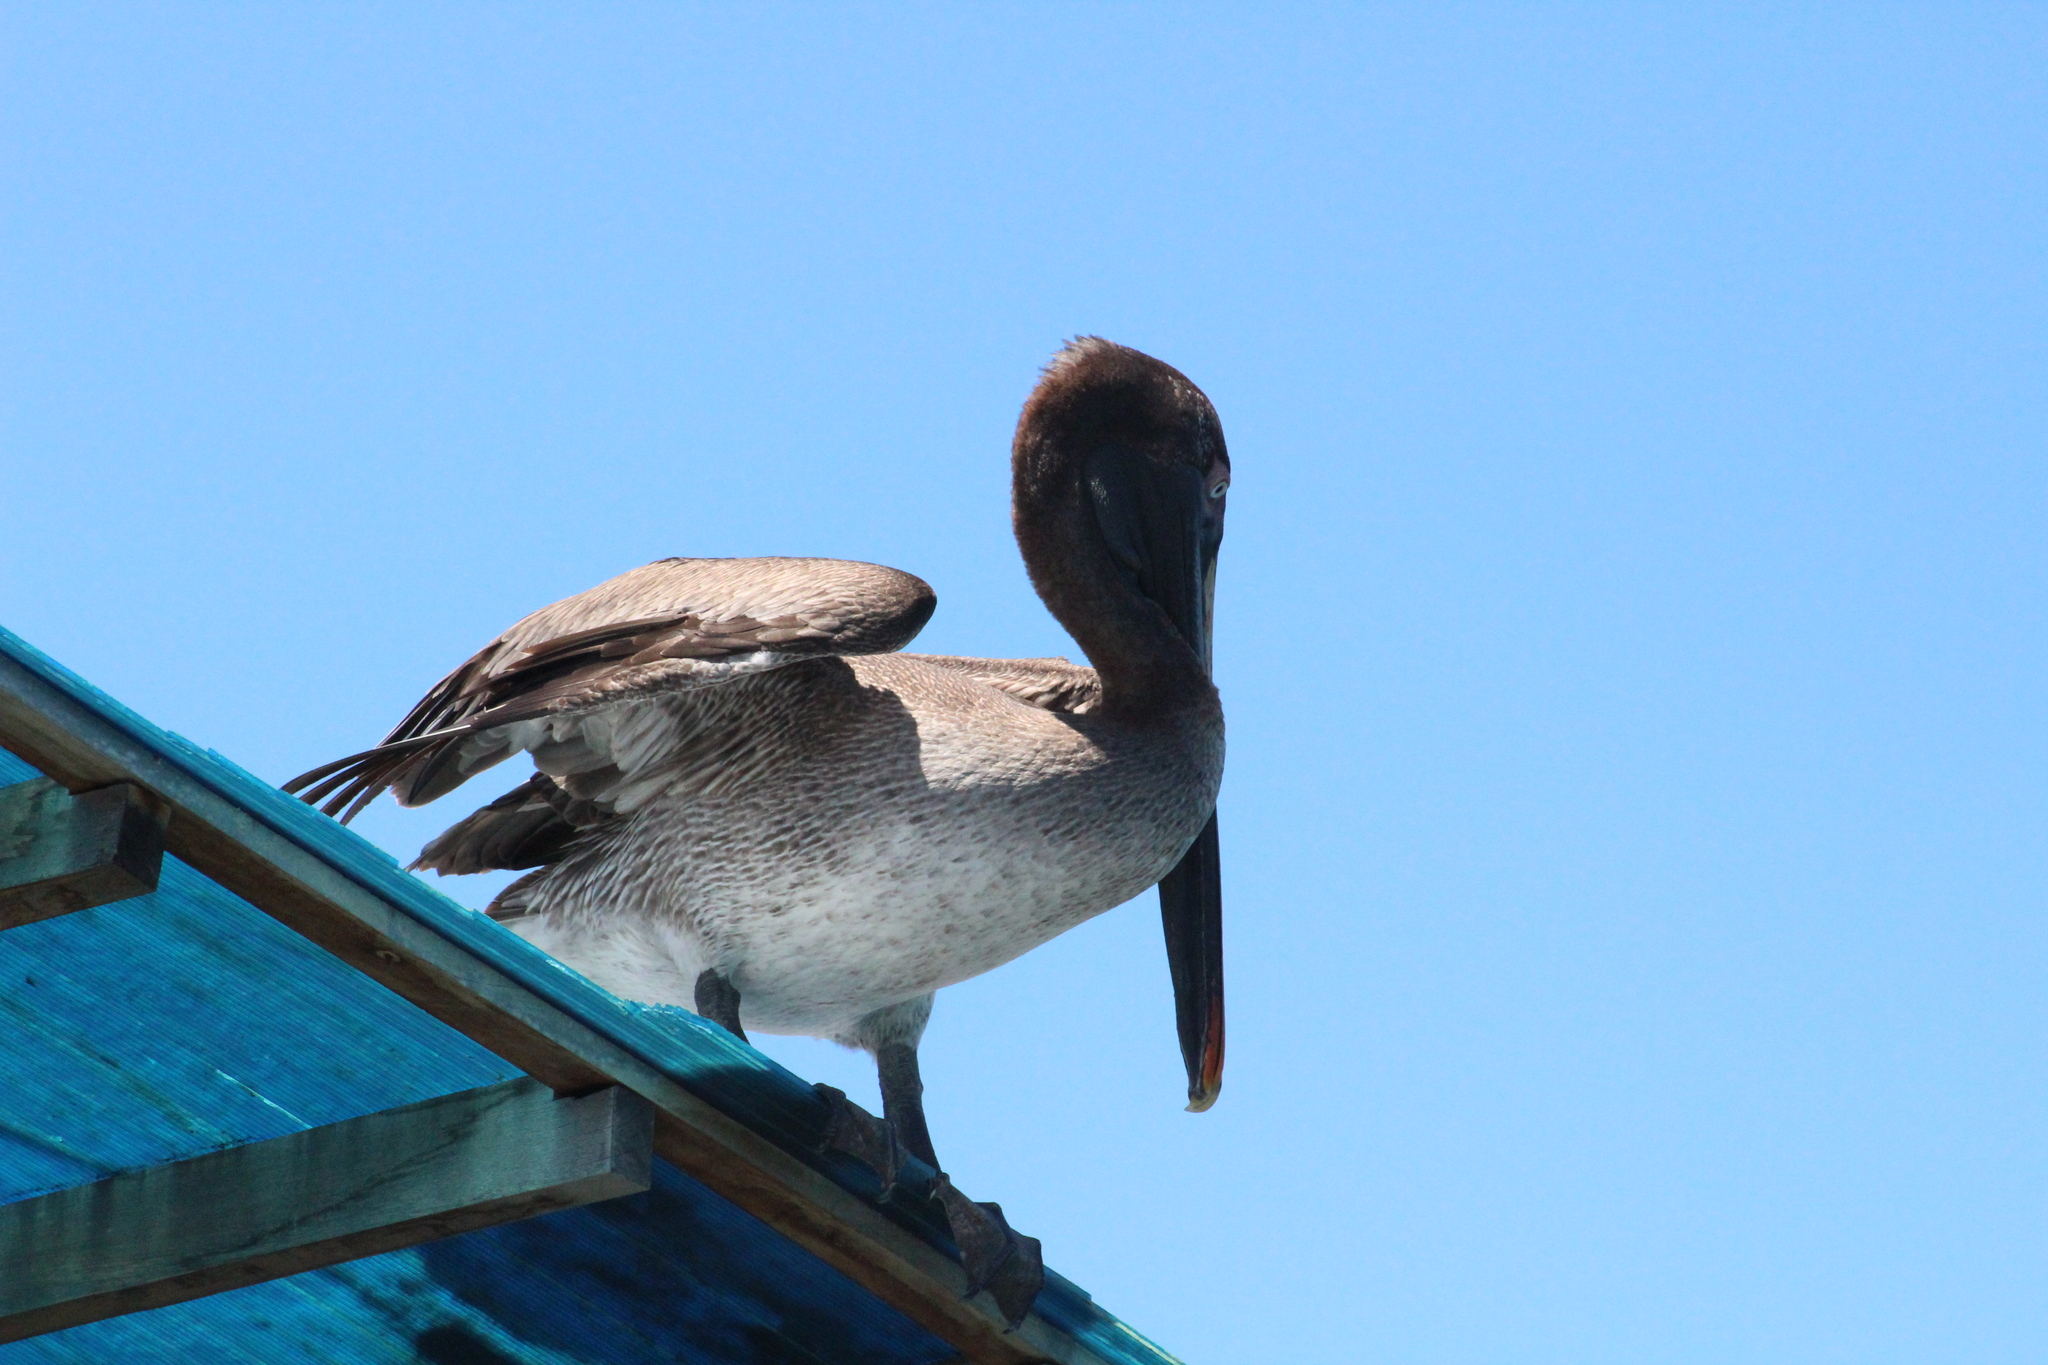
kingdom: Animalia
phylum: Chordata
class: Aves
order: Pelecaniformes
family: Pelecanidae
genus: Pelecanus
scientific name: Pelecanus occidentalis
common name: Brown pelican
